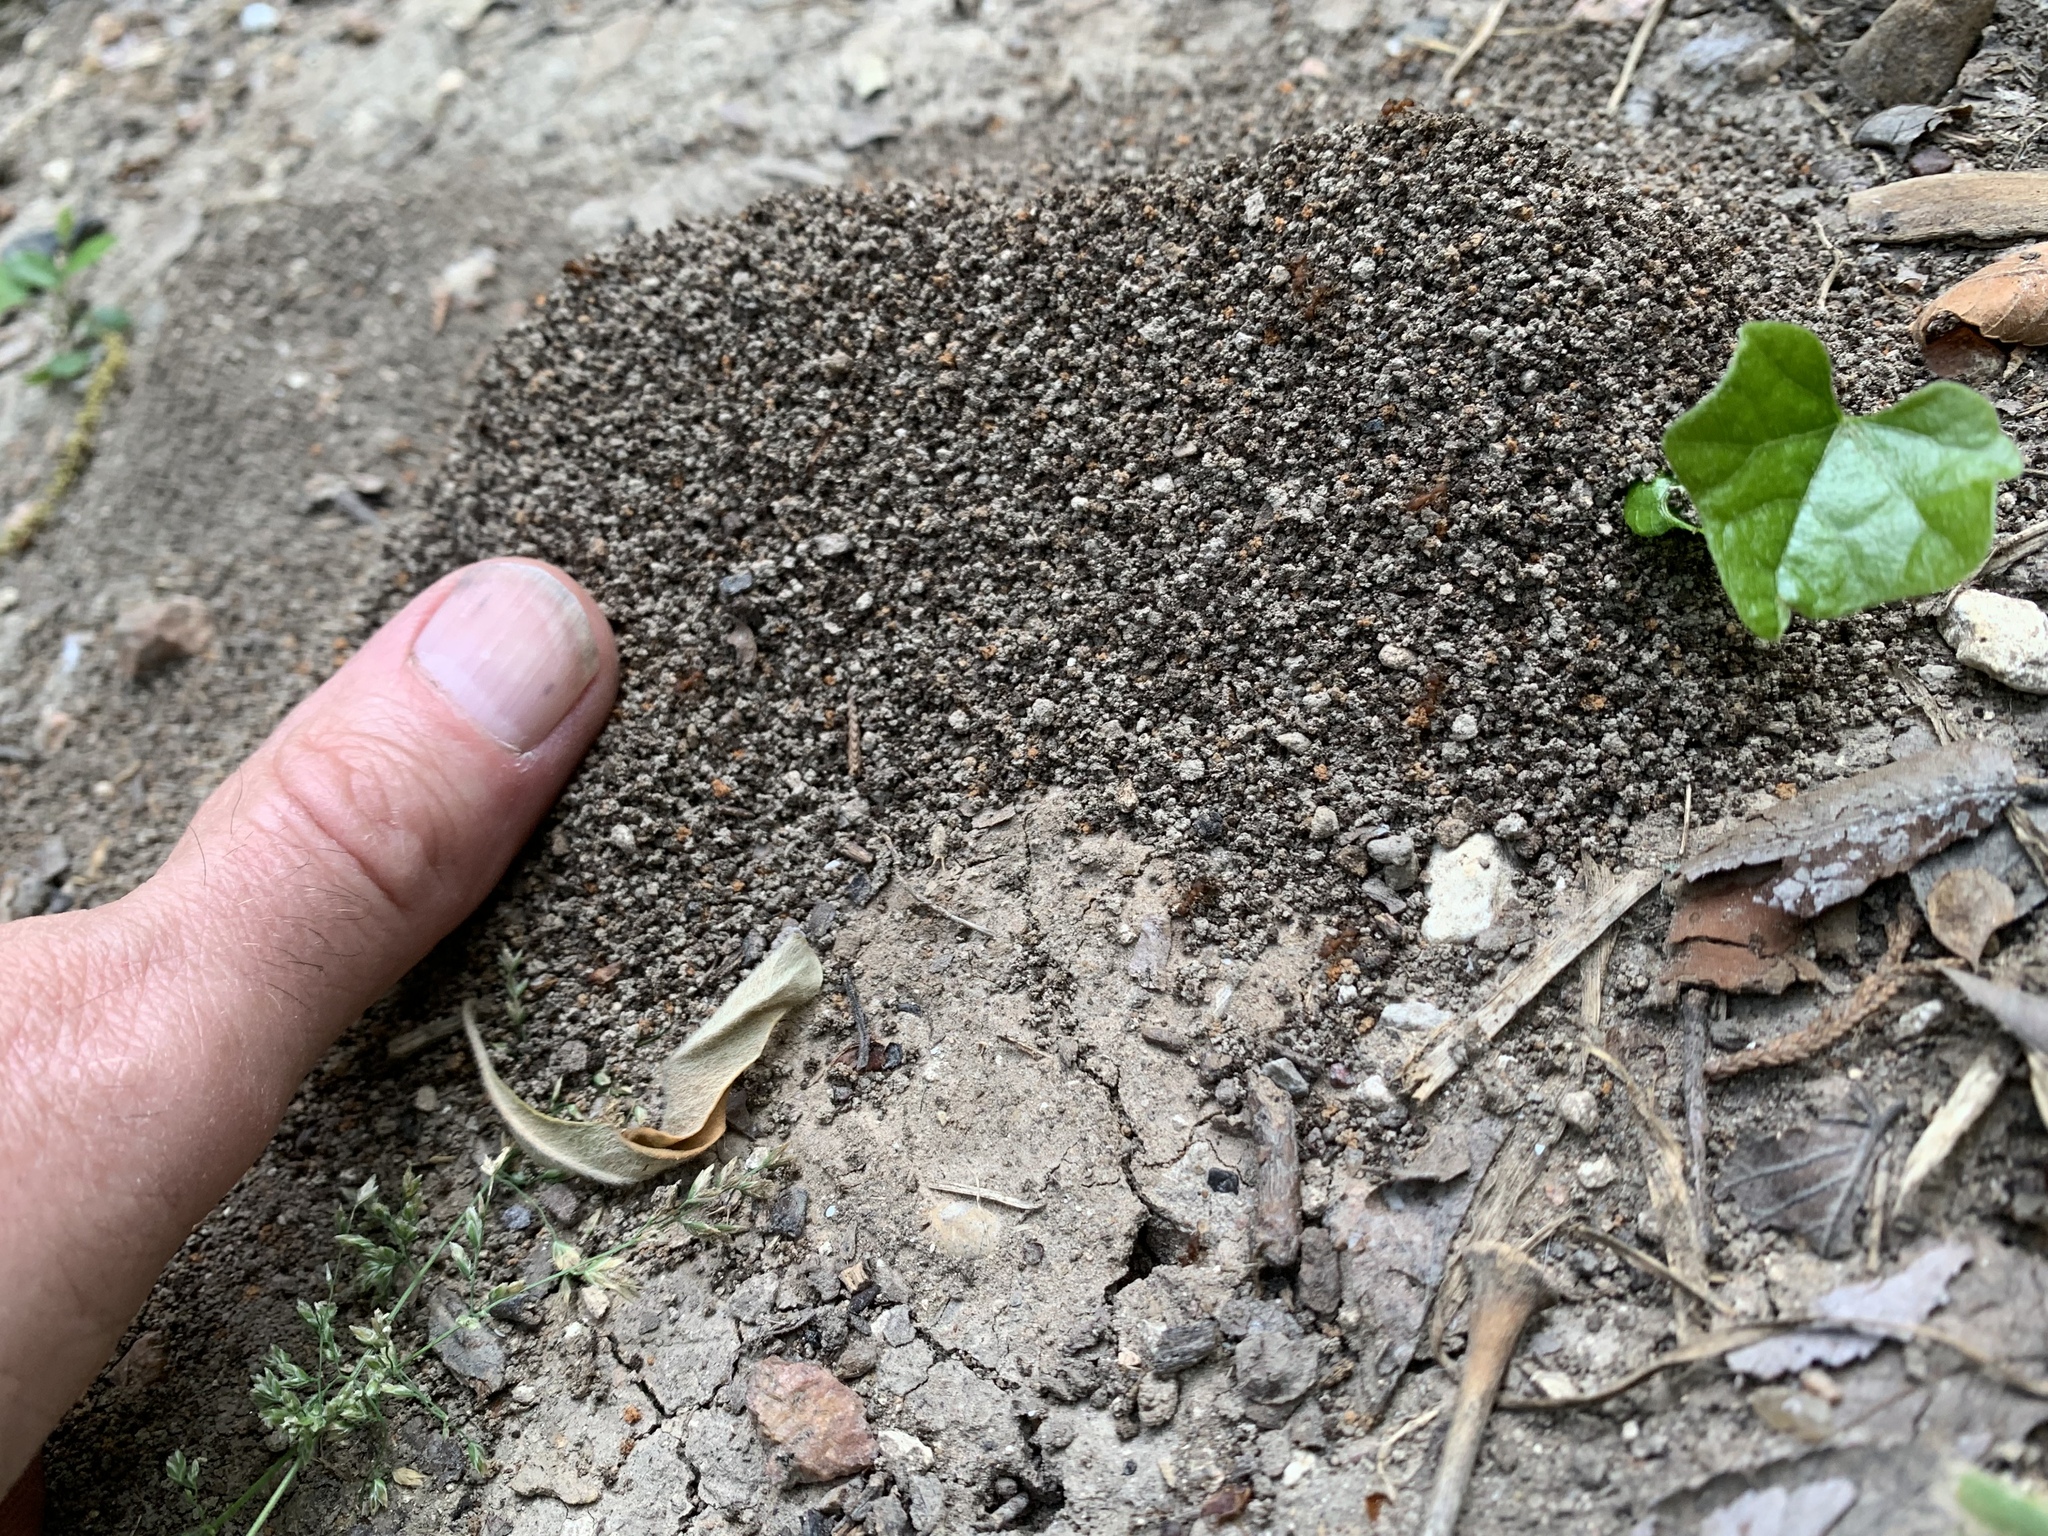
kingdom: Animalia
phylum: Arthropoda
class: Insecta
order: Hymenoptera
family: Formicidae
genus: Trachymyrmex
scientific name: Trachymyrmex septentrionalis
